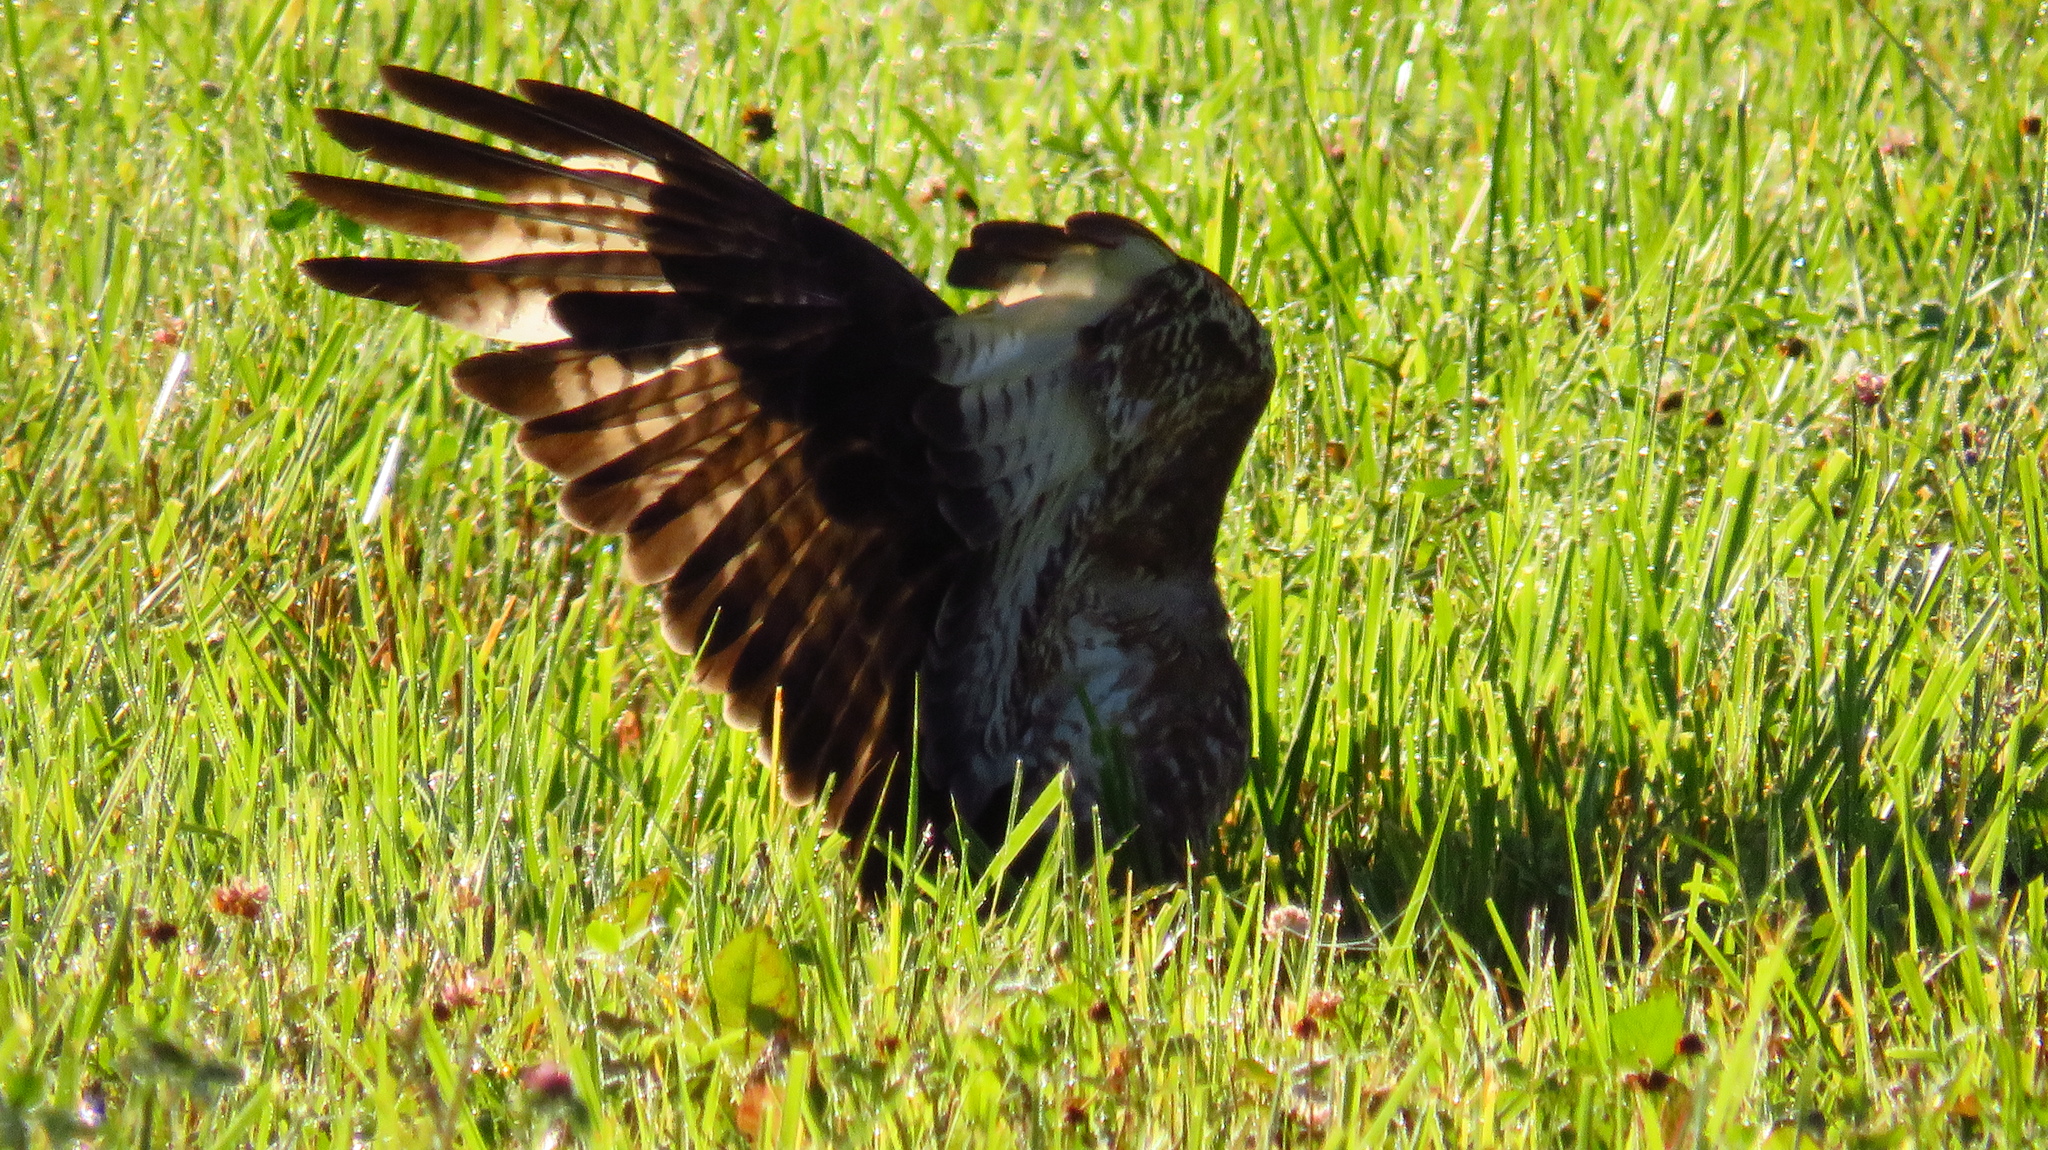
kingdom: Animalia
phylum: Chordata
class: Aves
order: Accipitriformes
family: Accipitridae
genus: Buteo
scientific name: Buteo buteo
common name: Common buzzard
